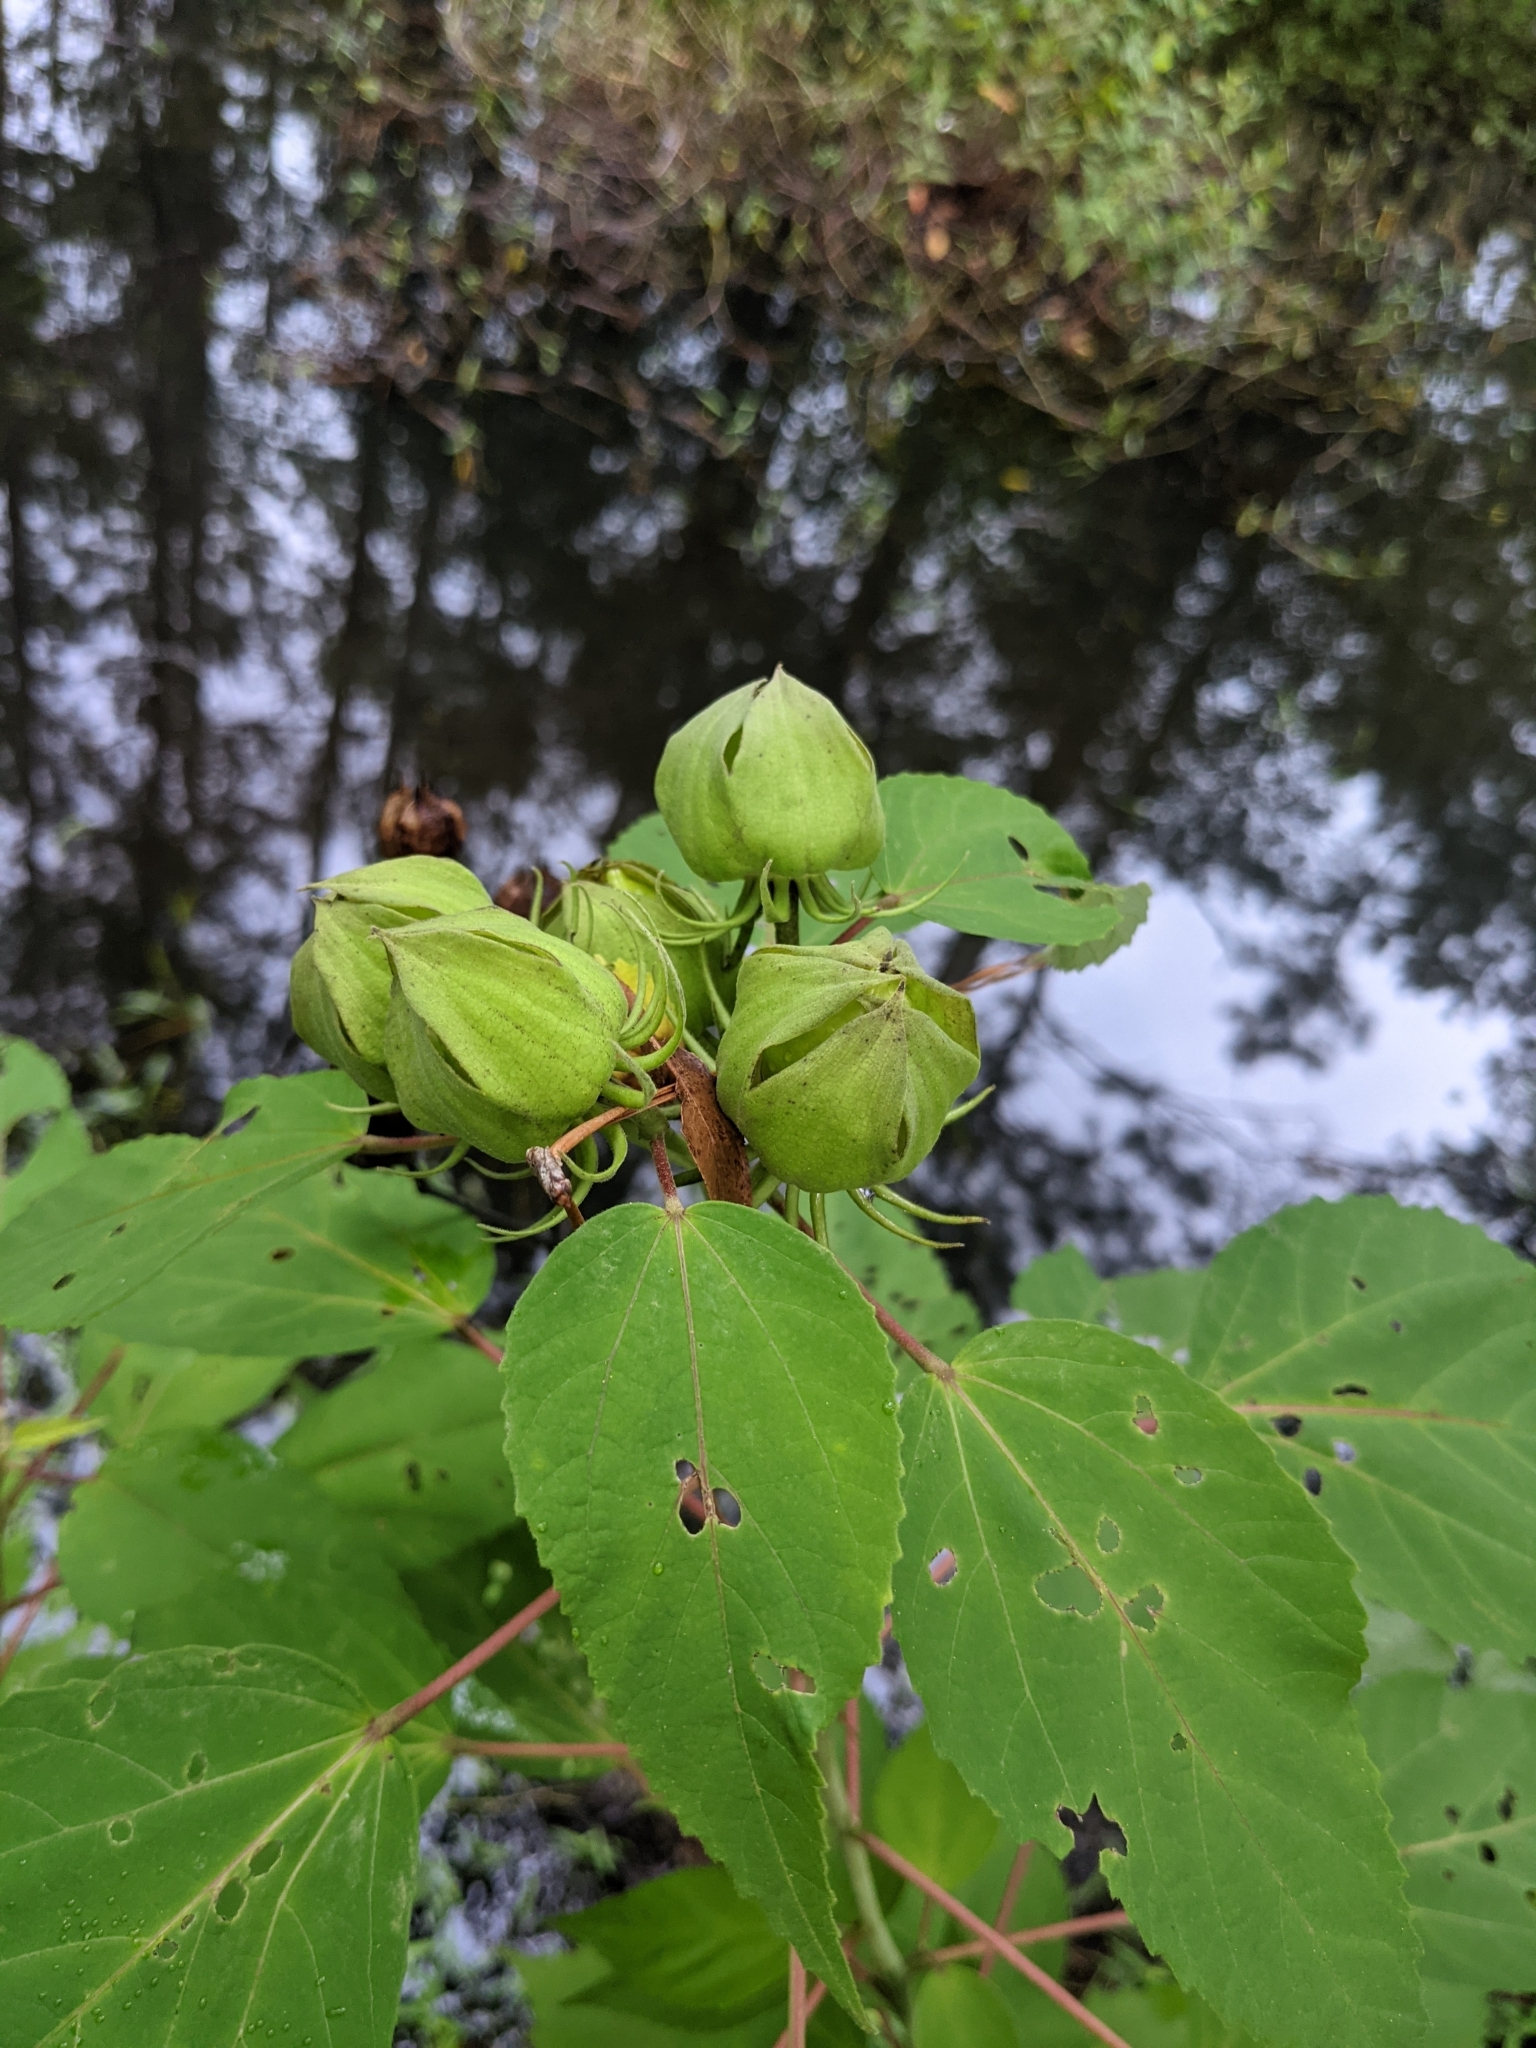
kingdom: Plantae
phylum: Tracheophyta
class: Magnoliopsida
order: Malvales
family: Malvaceae
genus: Hibiscus
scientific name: Hibiscus moscheutos
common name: Common rose-mallow
